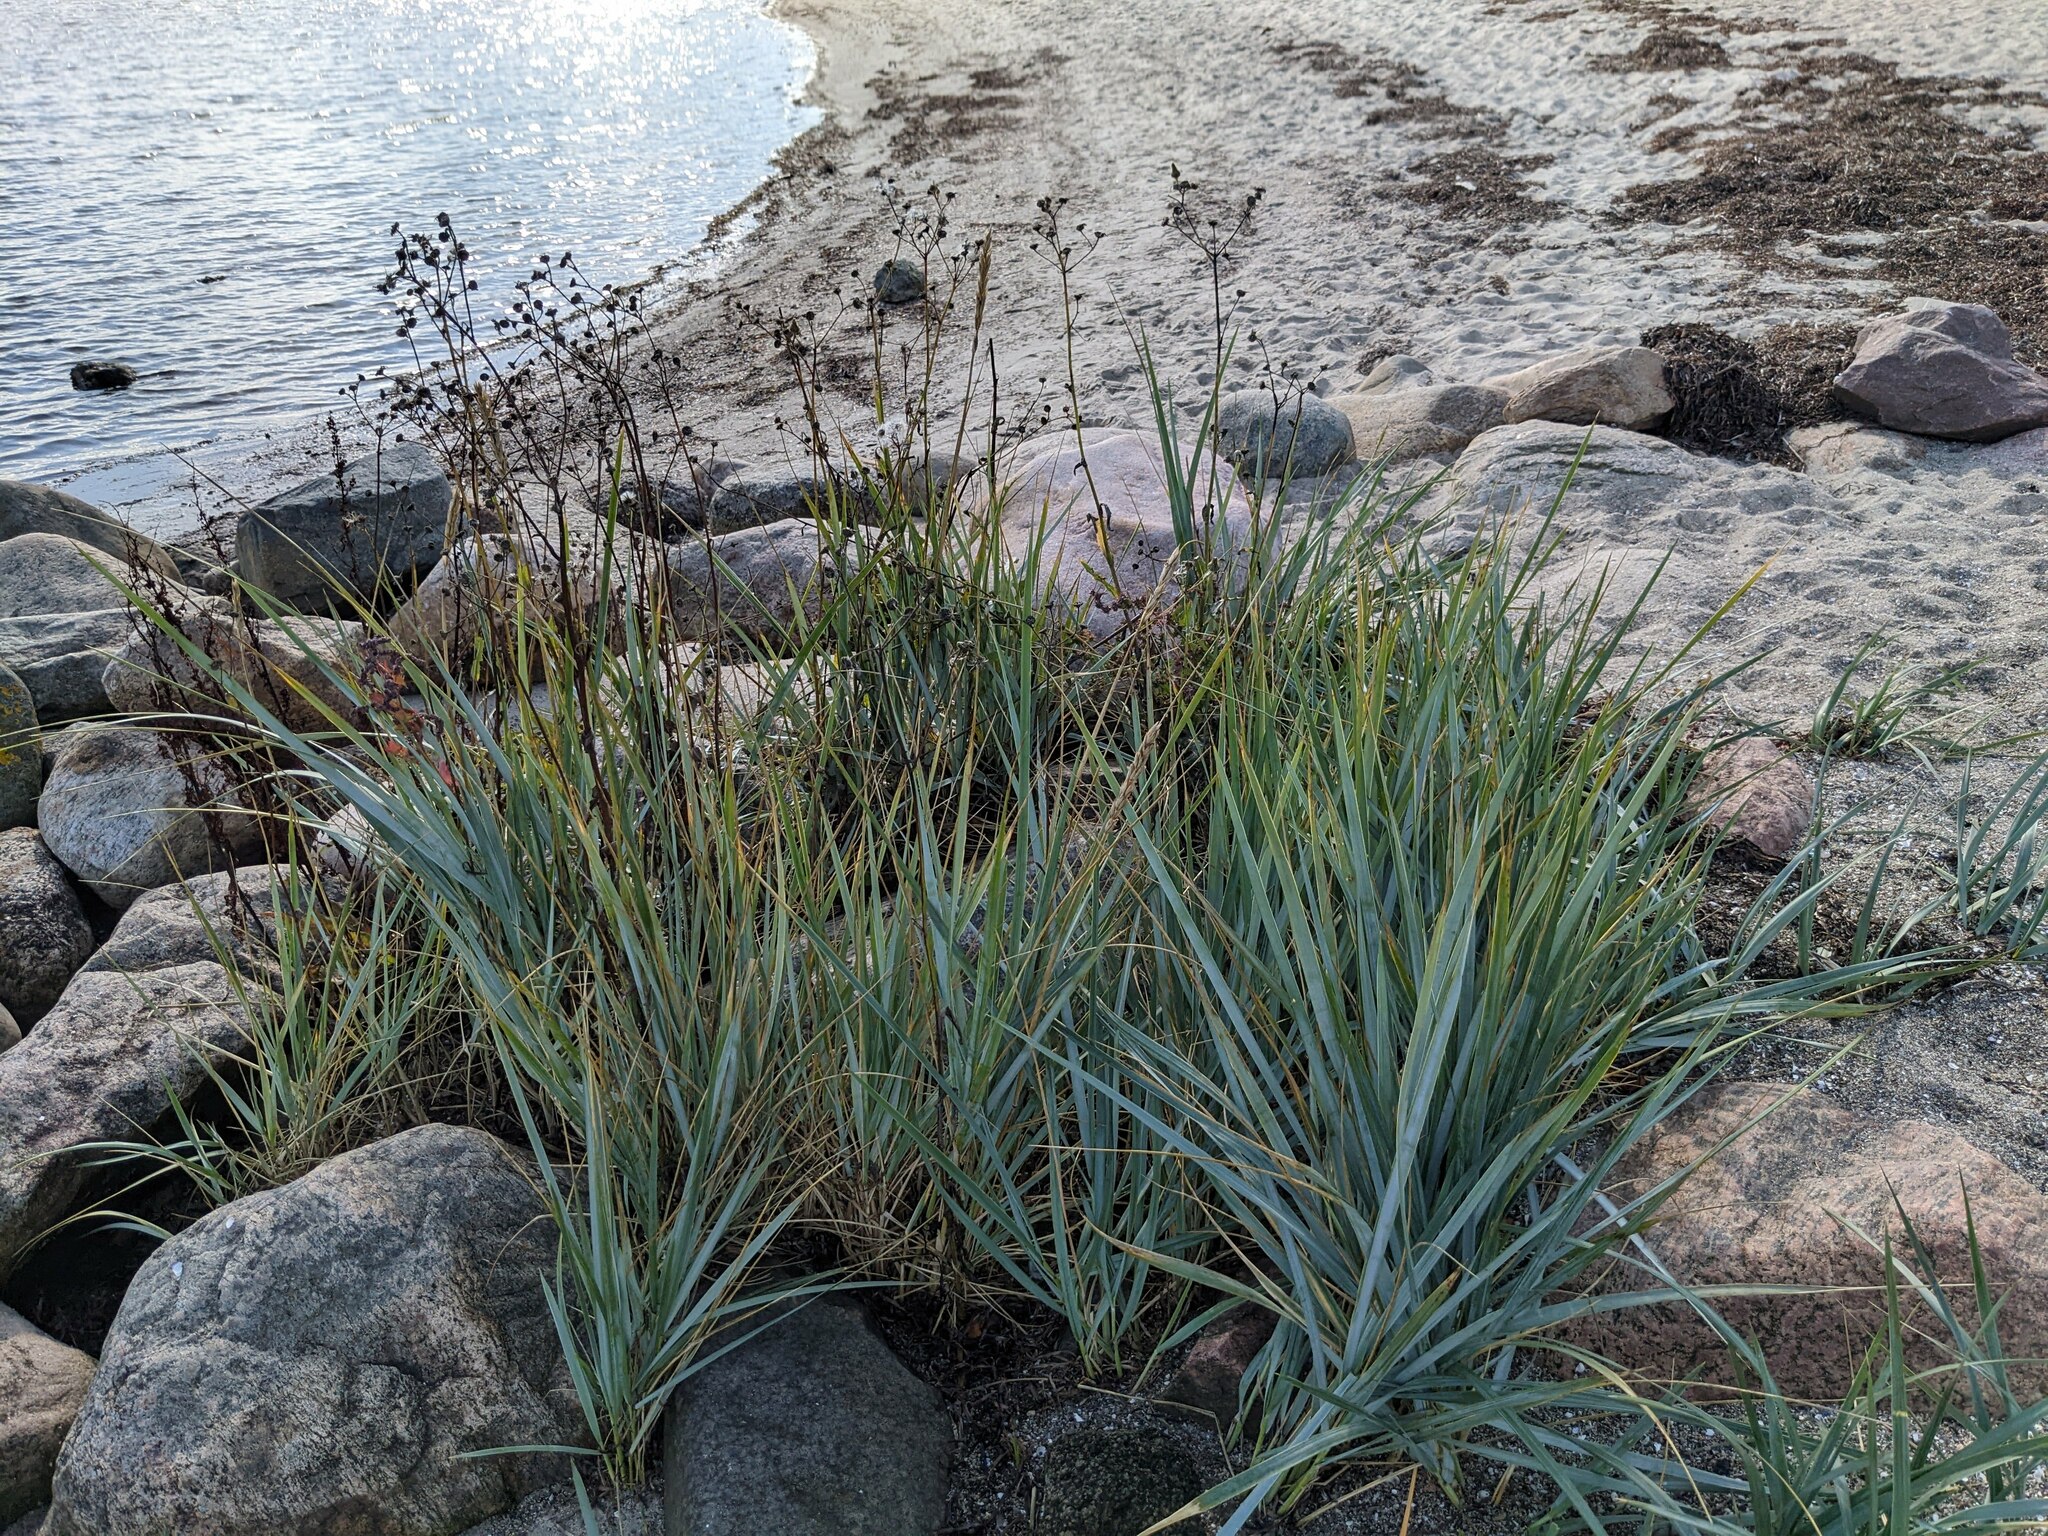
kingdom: Plantae
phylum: Tracheophyta
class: Liliopsida
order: Poales
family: Poaceae
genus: Leymus
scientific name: Leymus arenarius
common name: Lyme-grass
